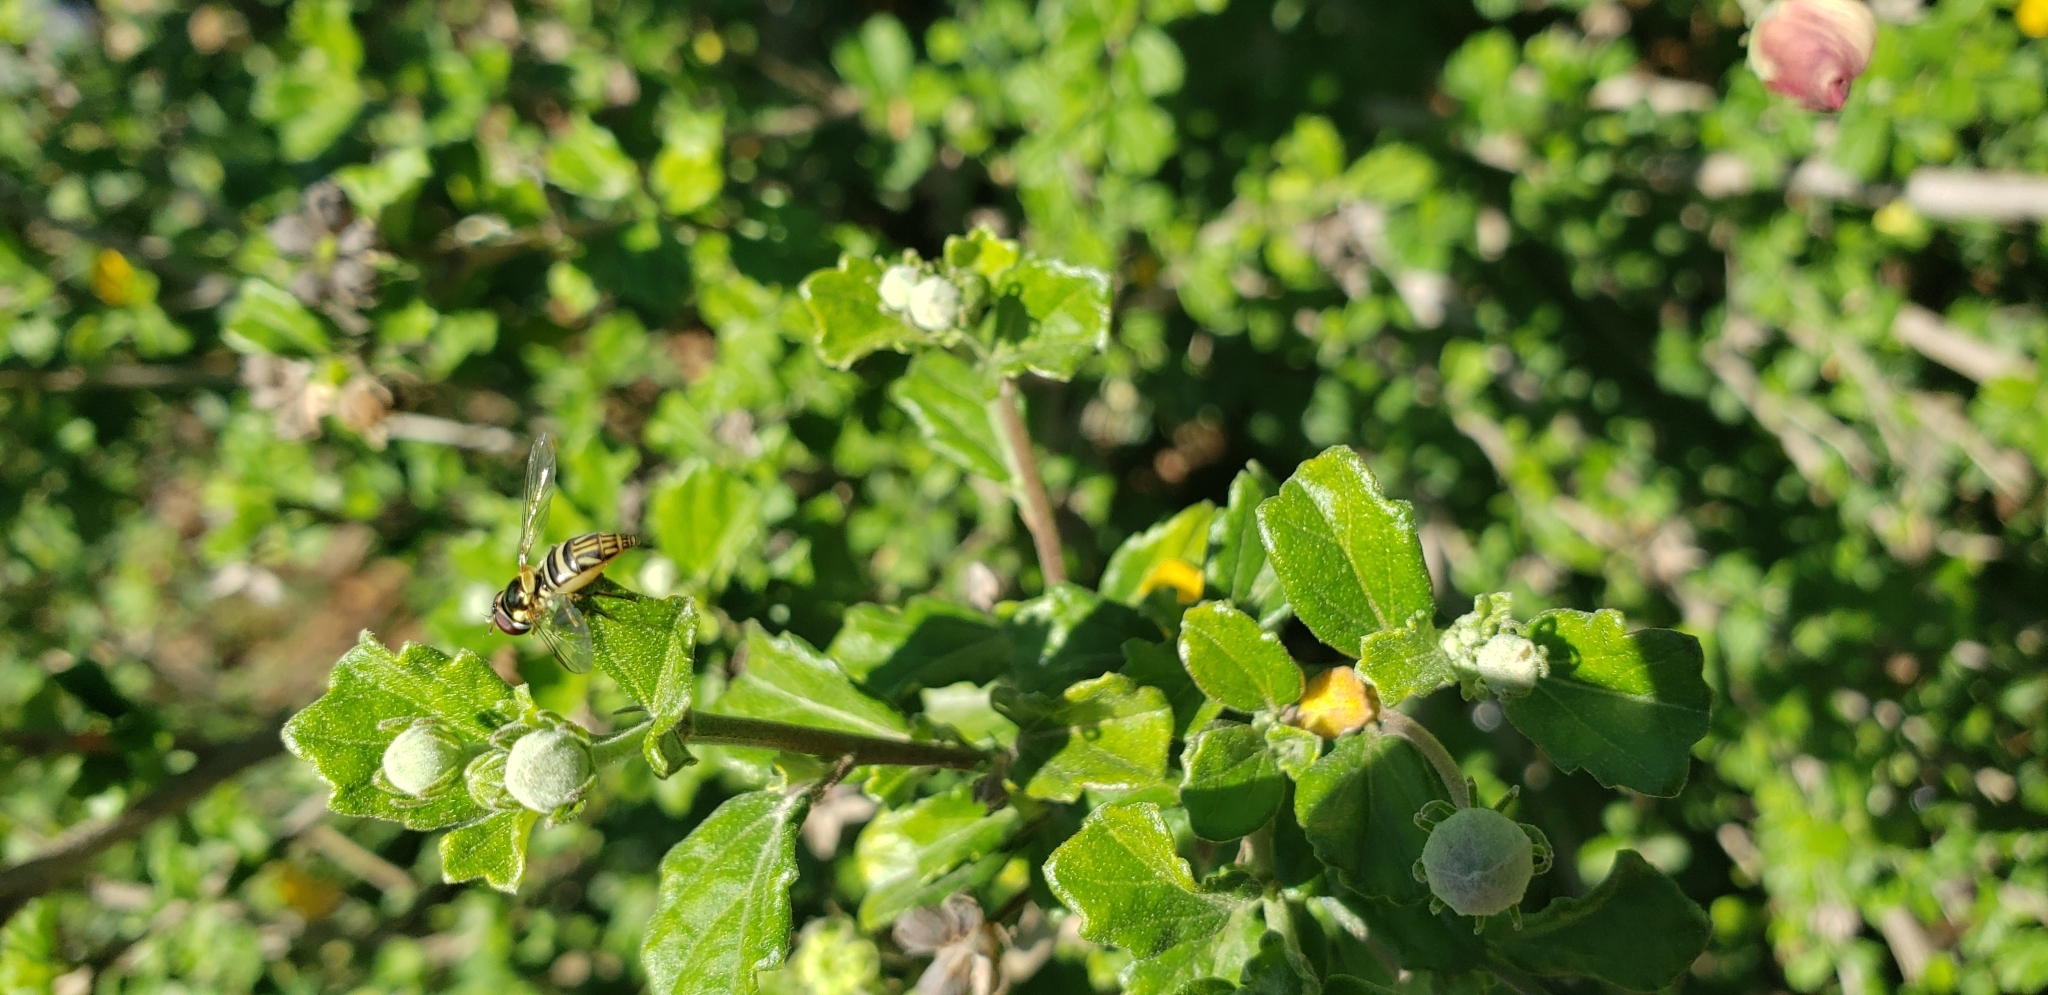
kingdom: Animalia
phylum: Arthropoda
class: Insecta
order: Diptera
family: Syrphidae
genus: Allograpta
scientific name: Allograpta obliqua
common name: Common oblique syrphid
